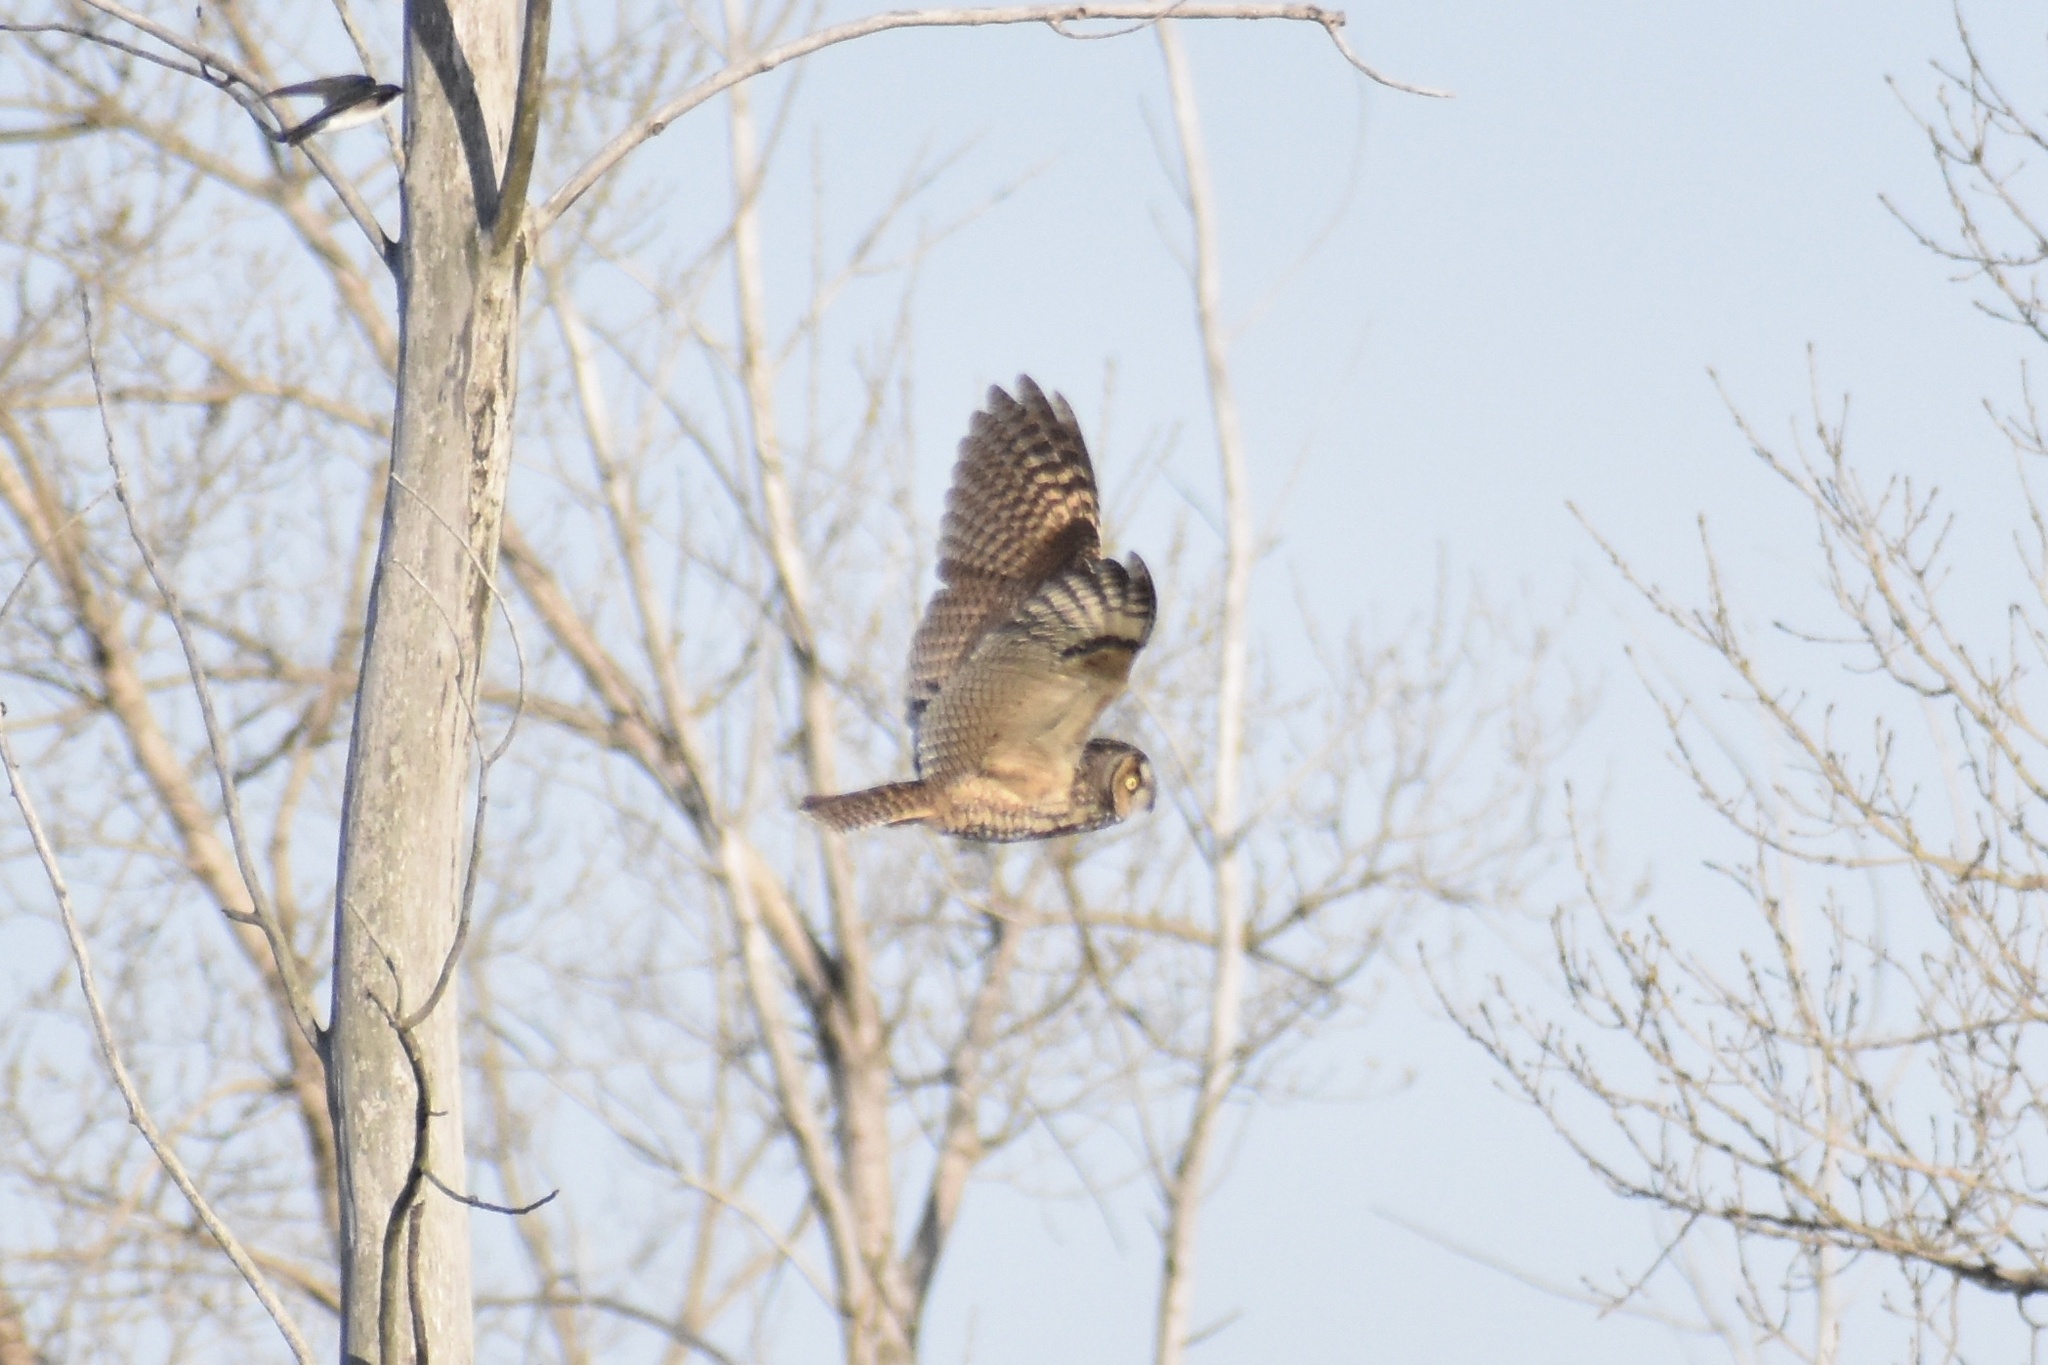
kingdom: Animalia
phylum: Chordata
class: Aves
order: Strigiformes
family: Strigidae
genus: Asio
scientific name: Asio otus
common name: Long-eared owl
